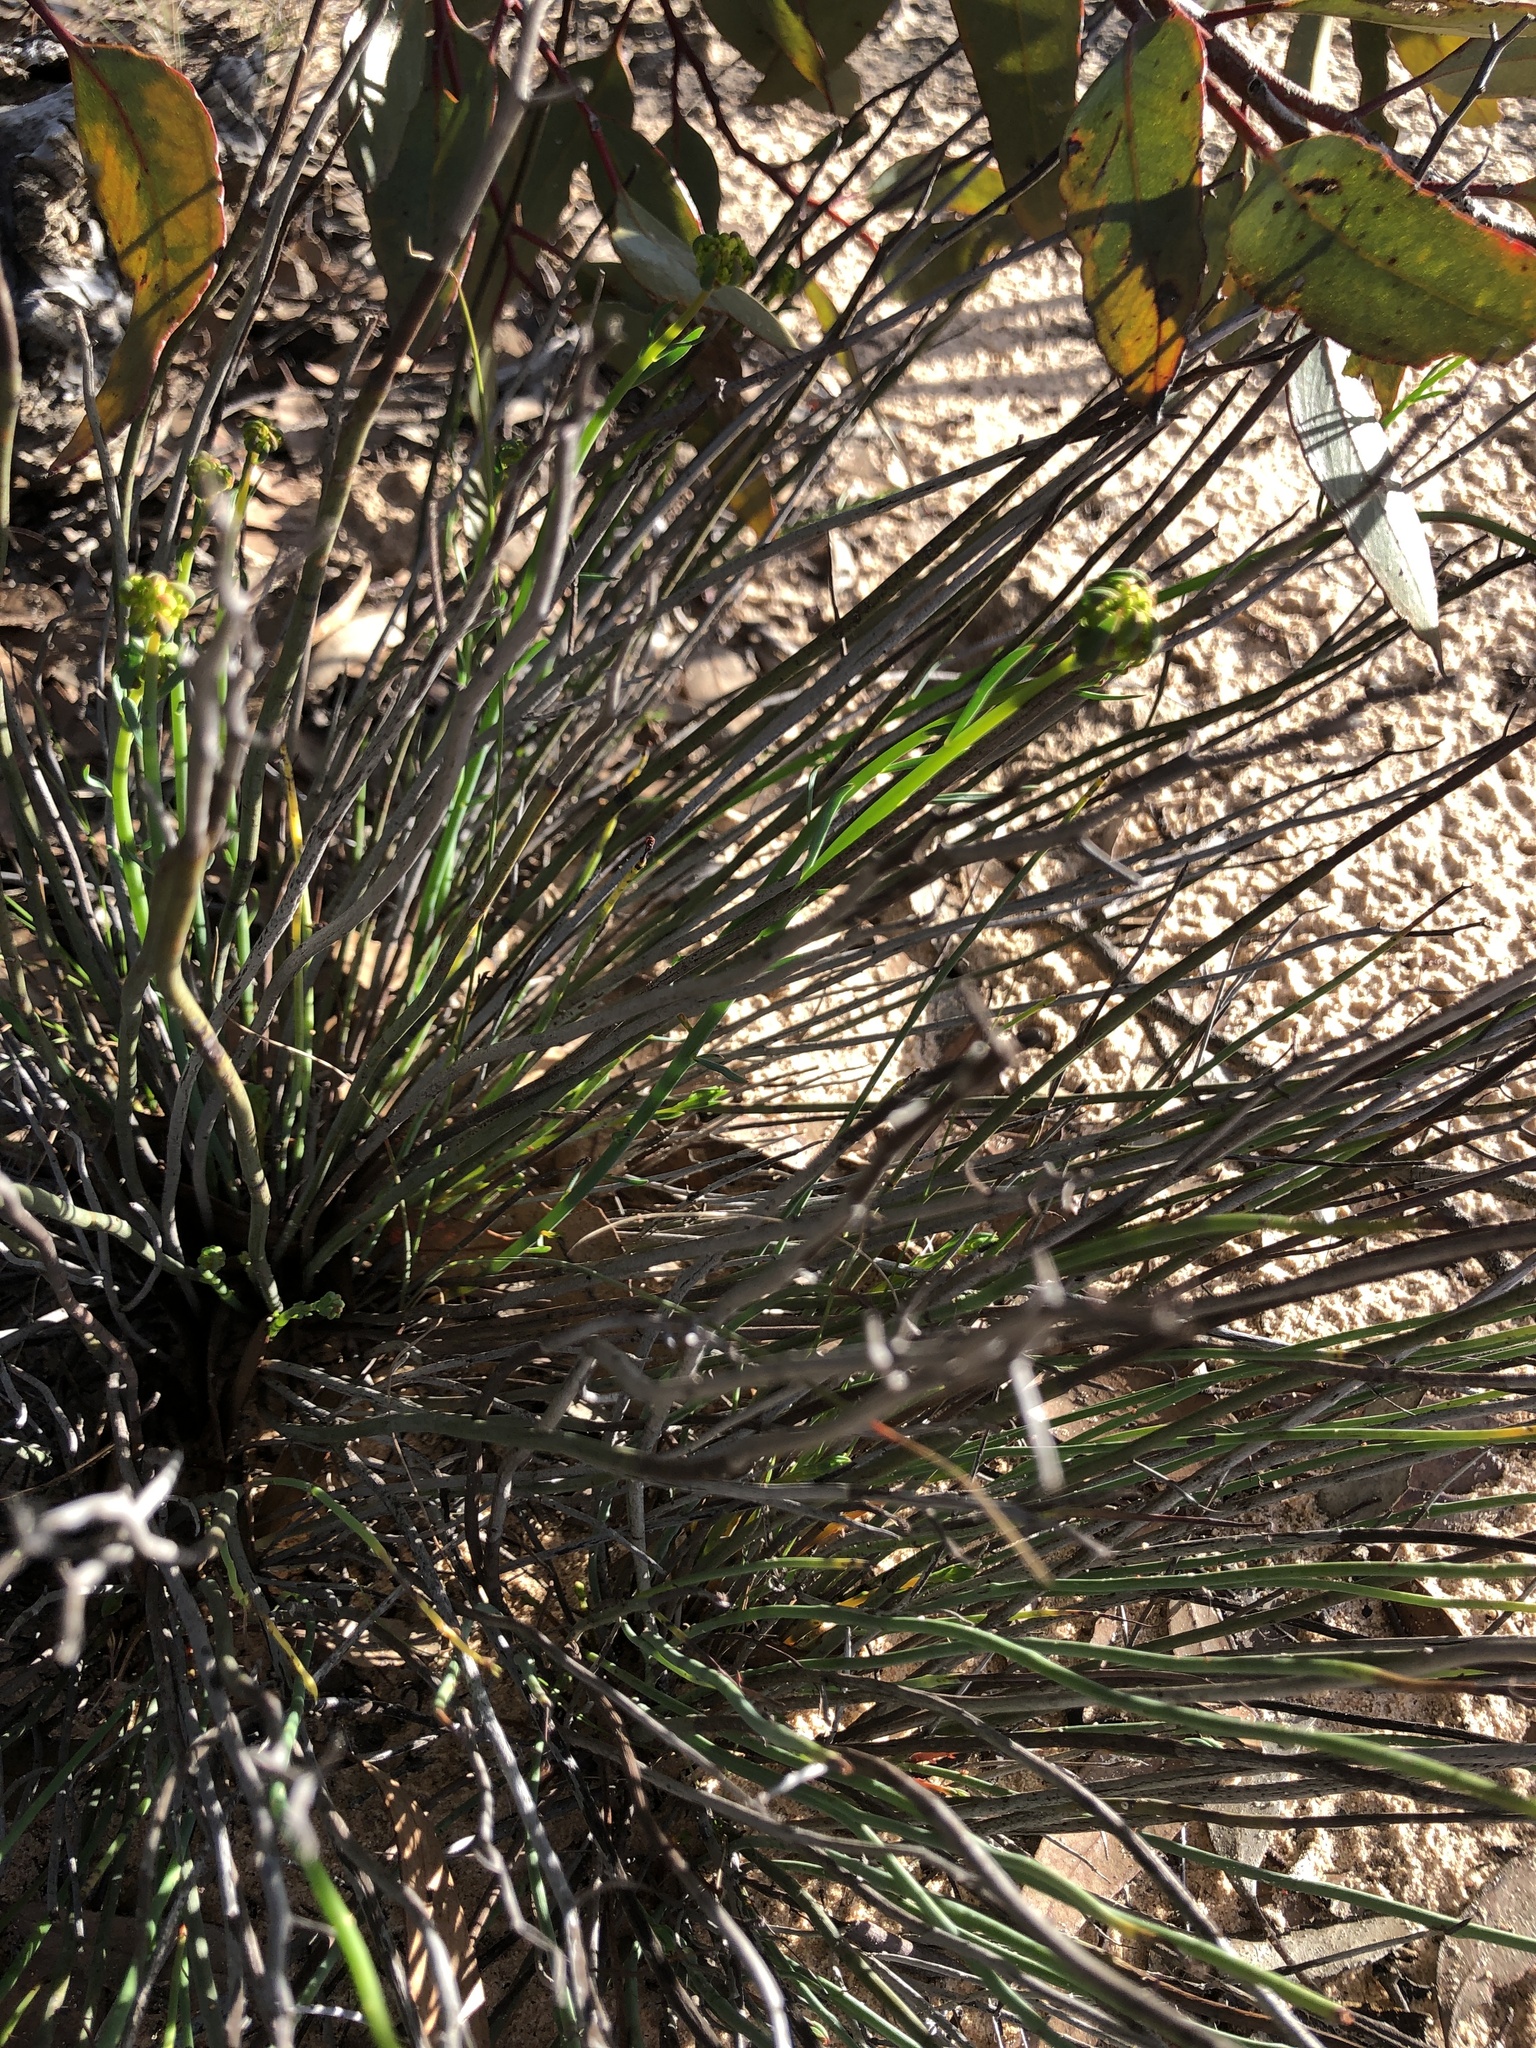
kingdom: Plantae
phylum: Tracheophyta
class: Magnoliopsida
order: Saxifragales
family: Haloragaceae
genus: Glischrocaryon
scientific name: Glischrocaryon behrii
